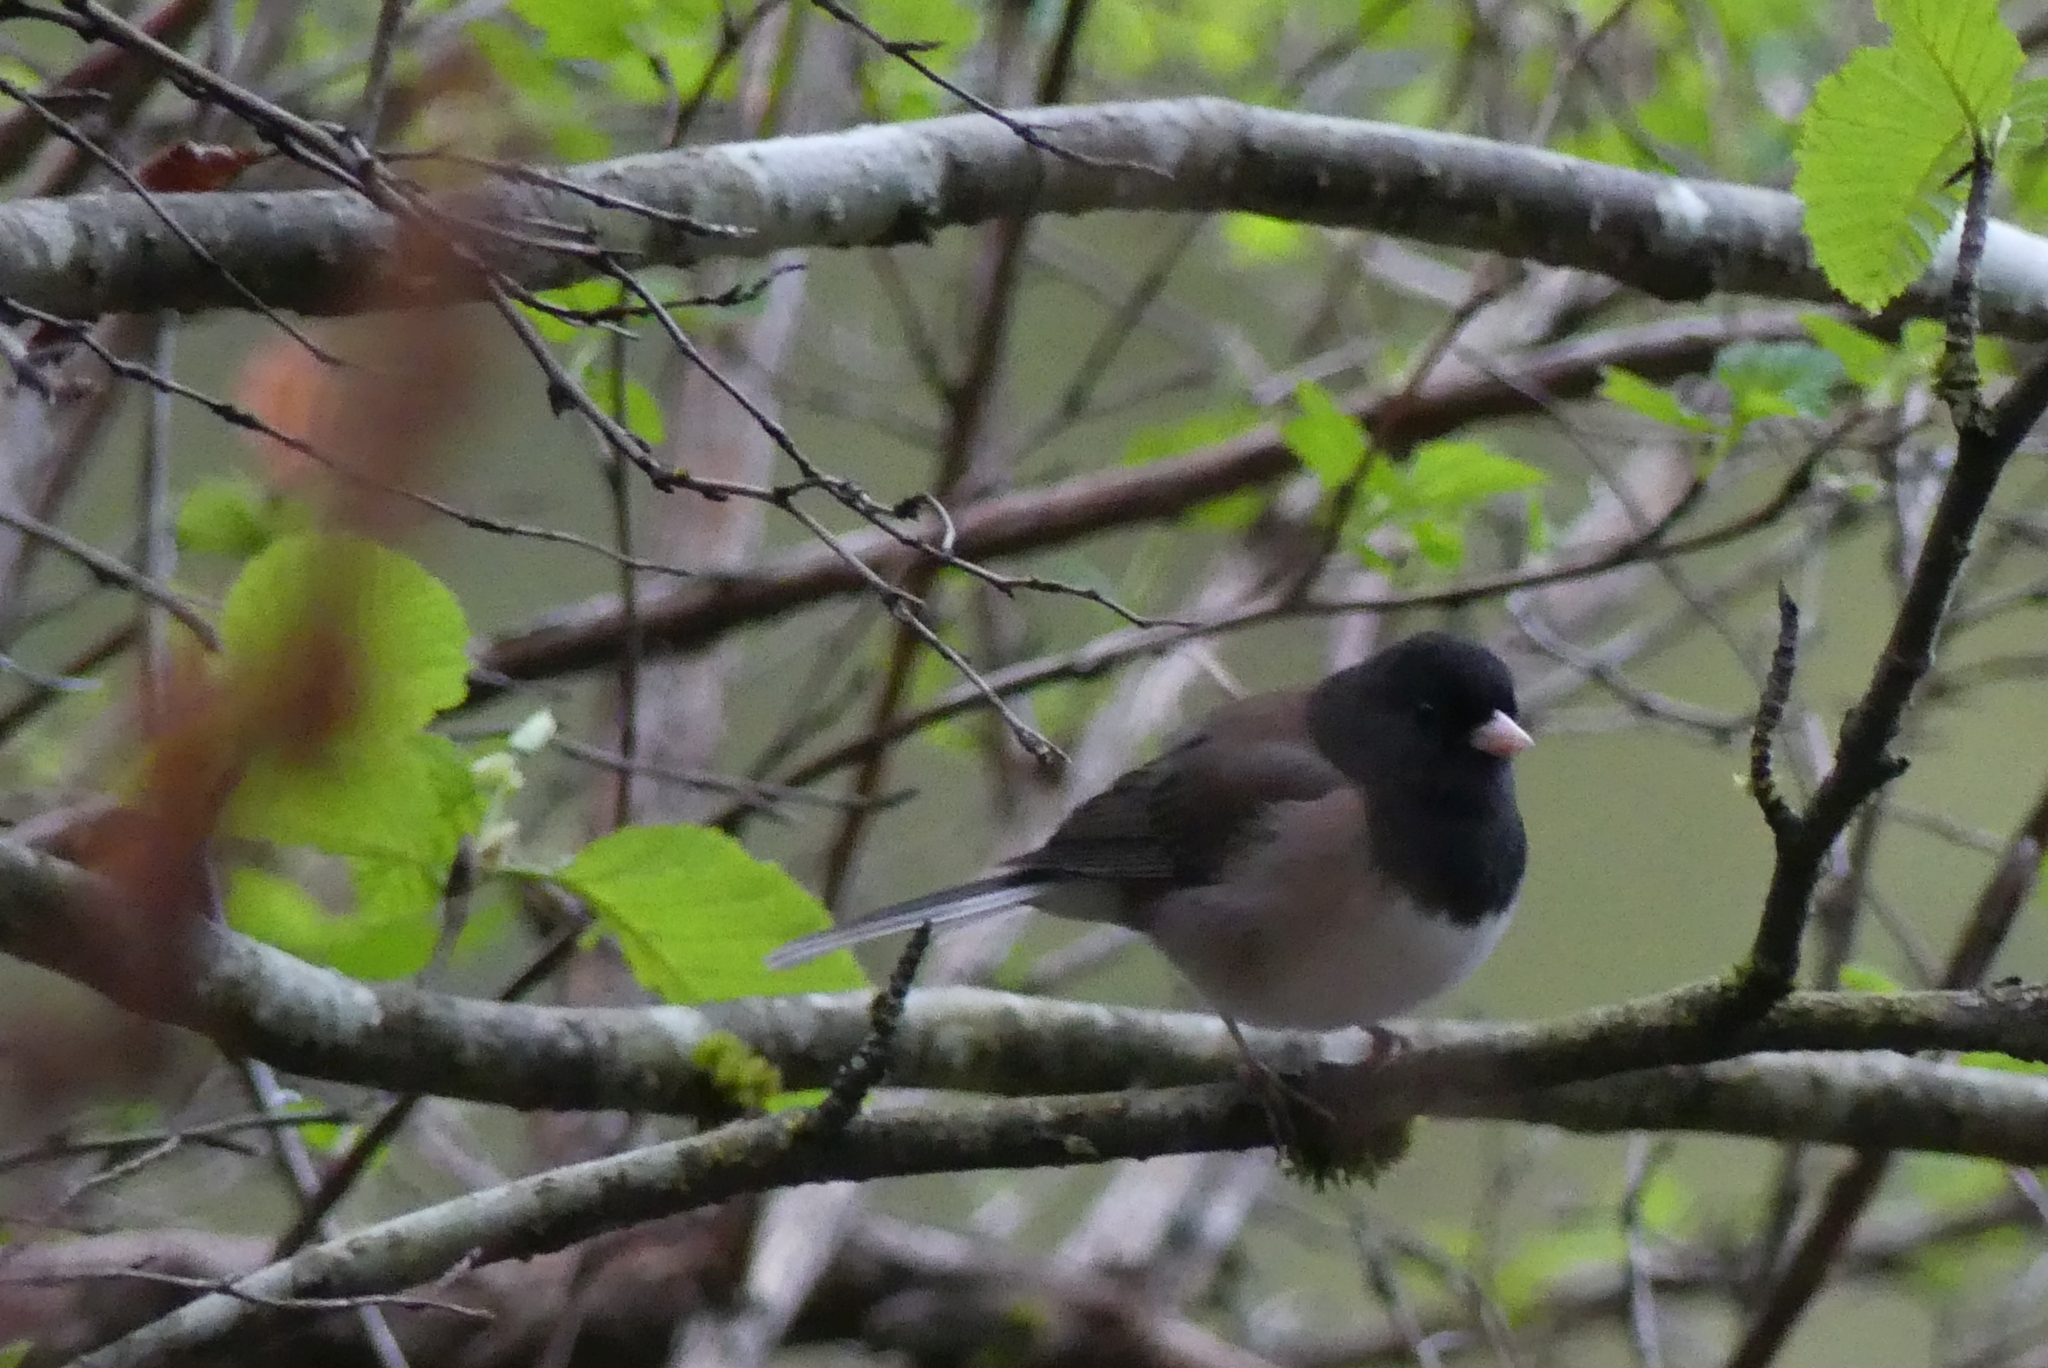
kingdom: Animalia
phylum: Chordata
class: Aves
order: Passeriformes
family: Passerellidae
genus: Junco
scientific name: Junco hyemalis
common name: Dark-eyed junco
